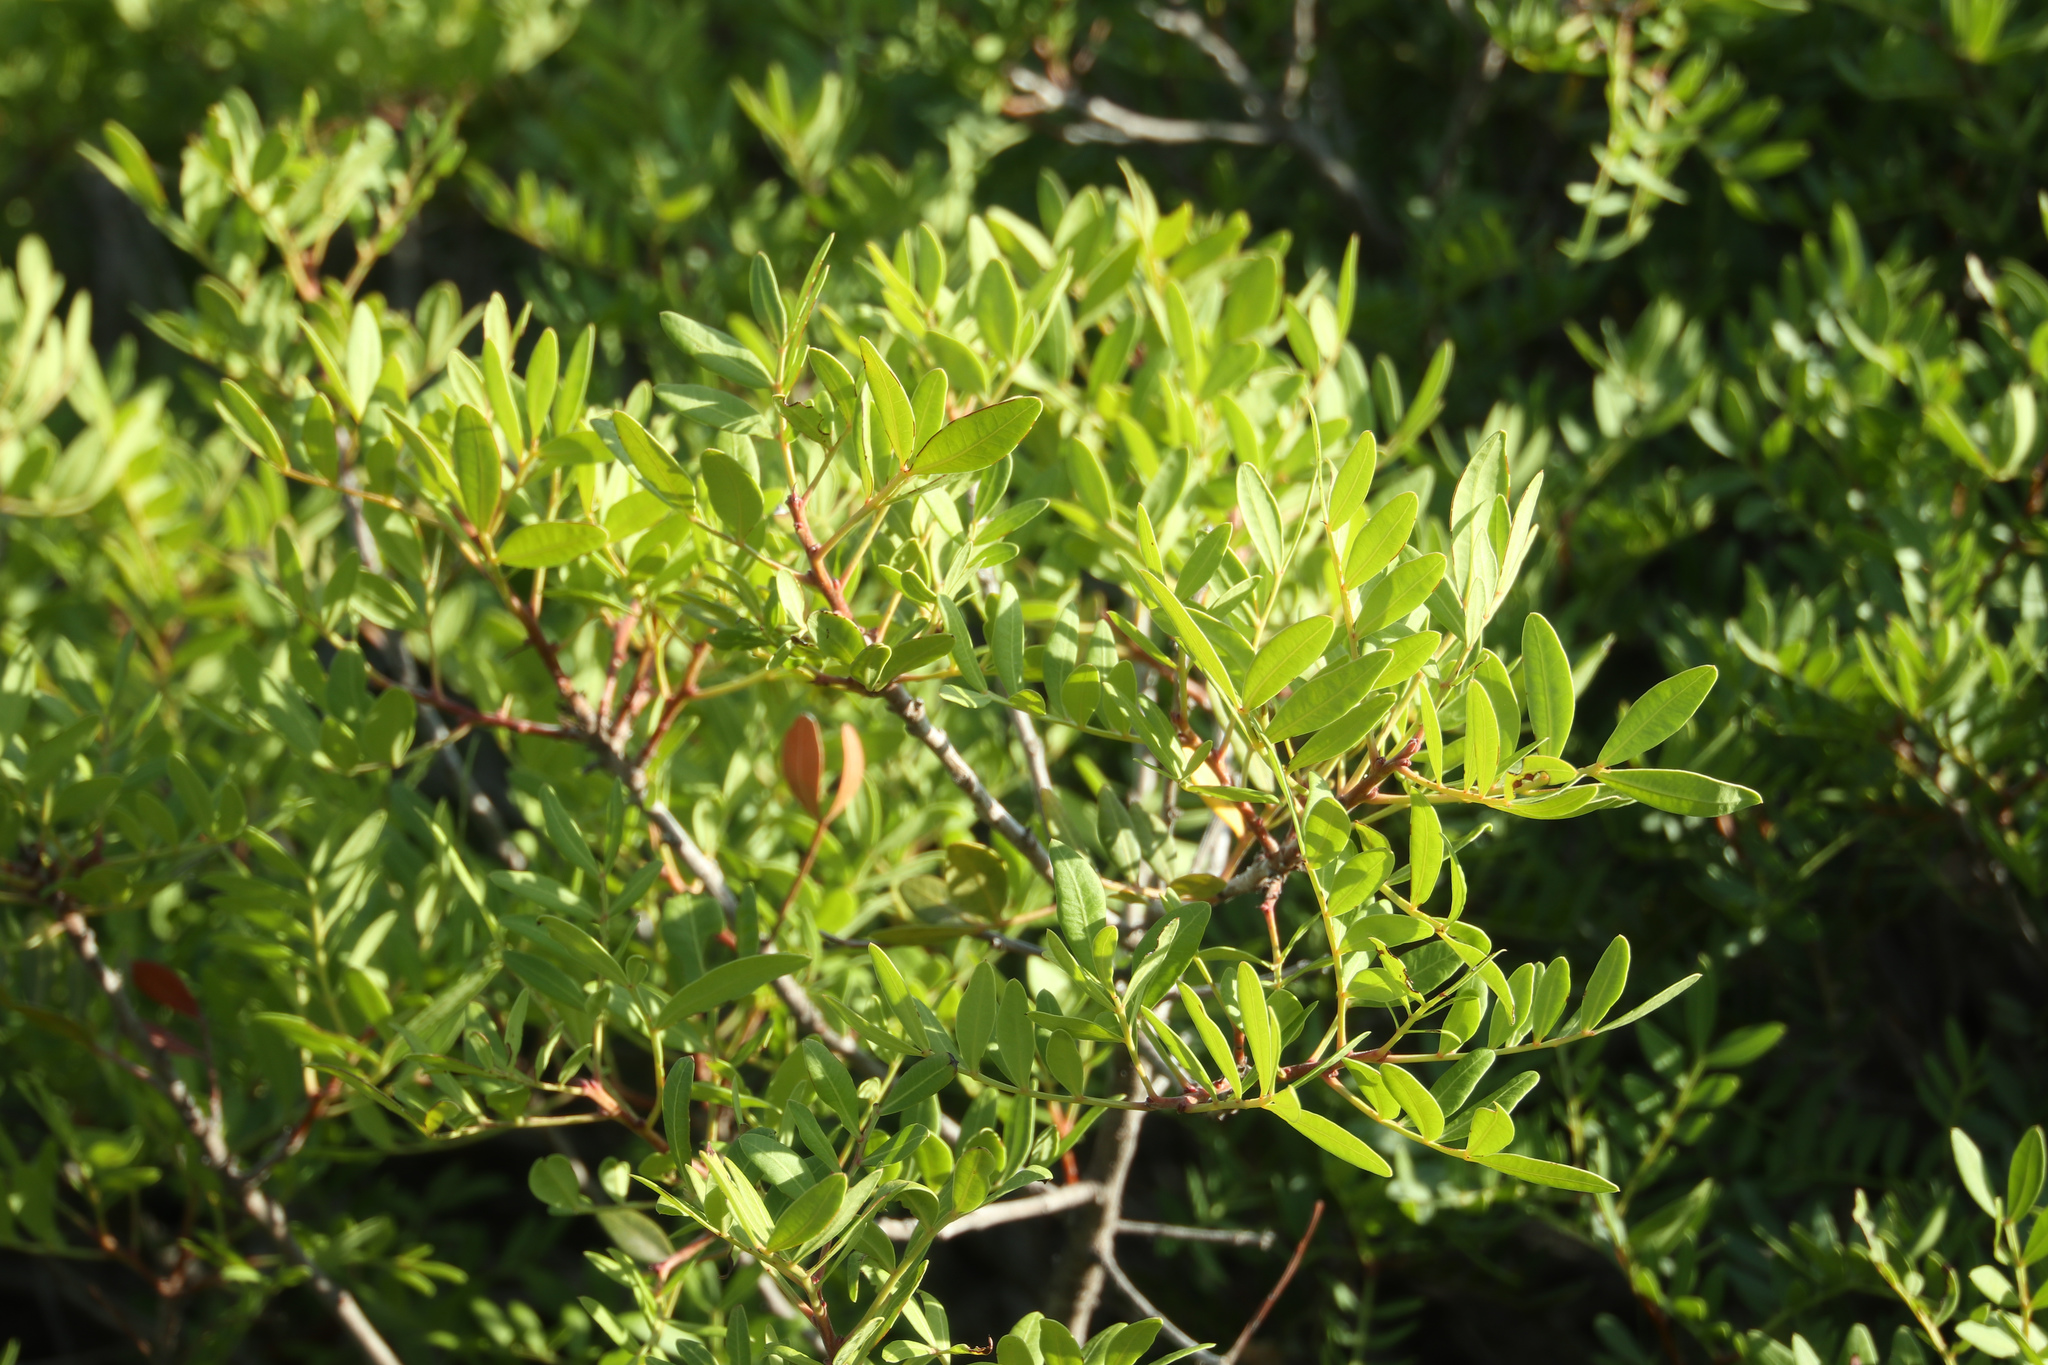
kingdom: Plantae
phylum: Tracheophyta
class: Magnoliopsida
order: Sapindales
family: Anacardiaceae
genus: Pistacia
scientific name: Pistacia lentiscus
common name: Lentisk
